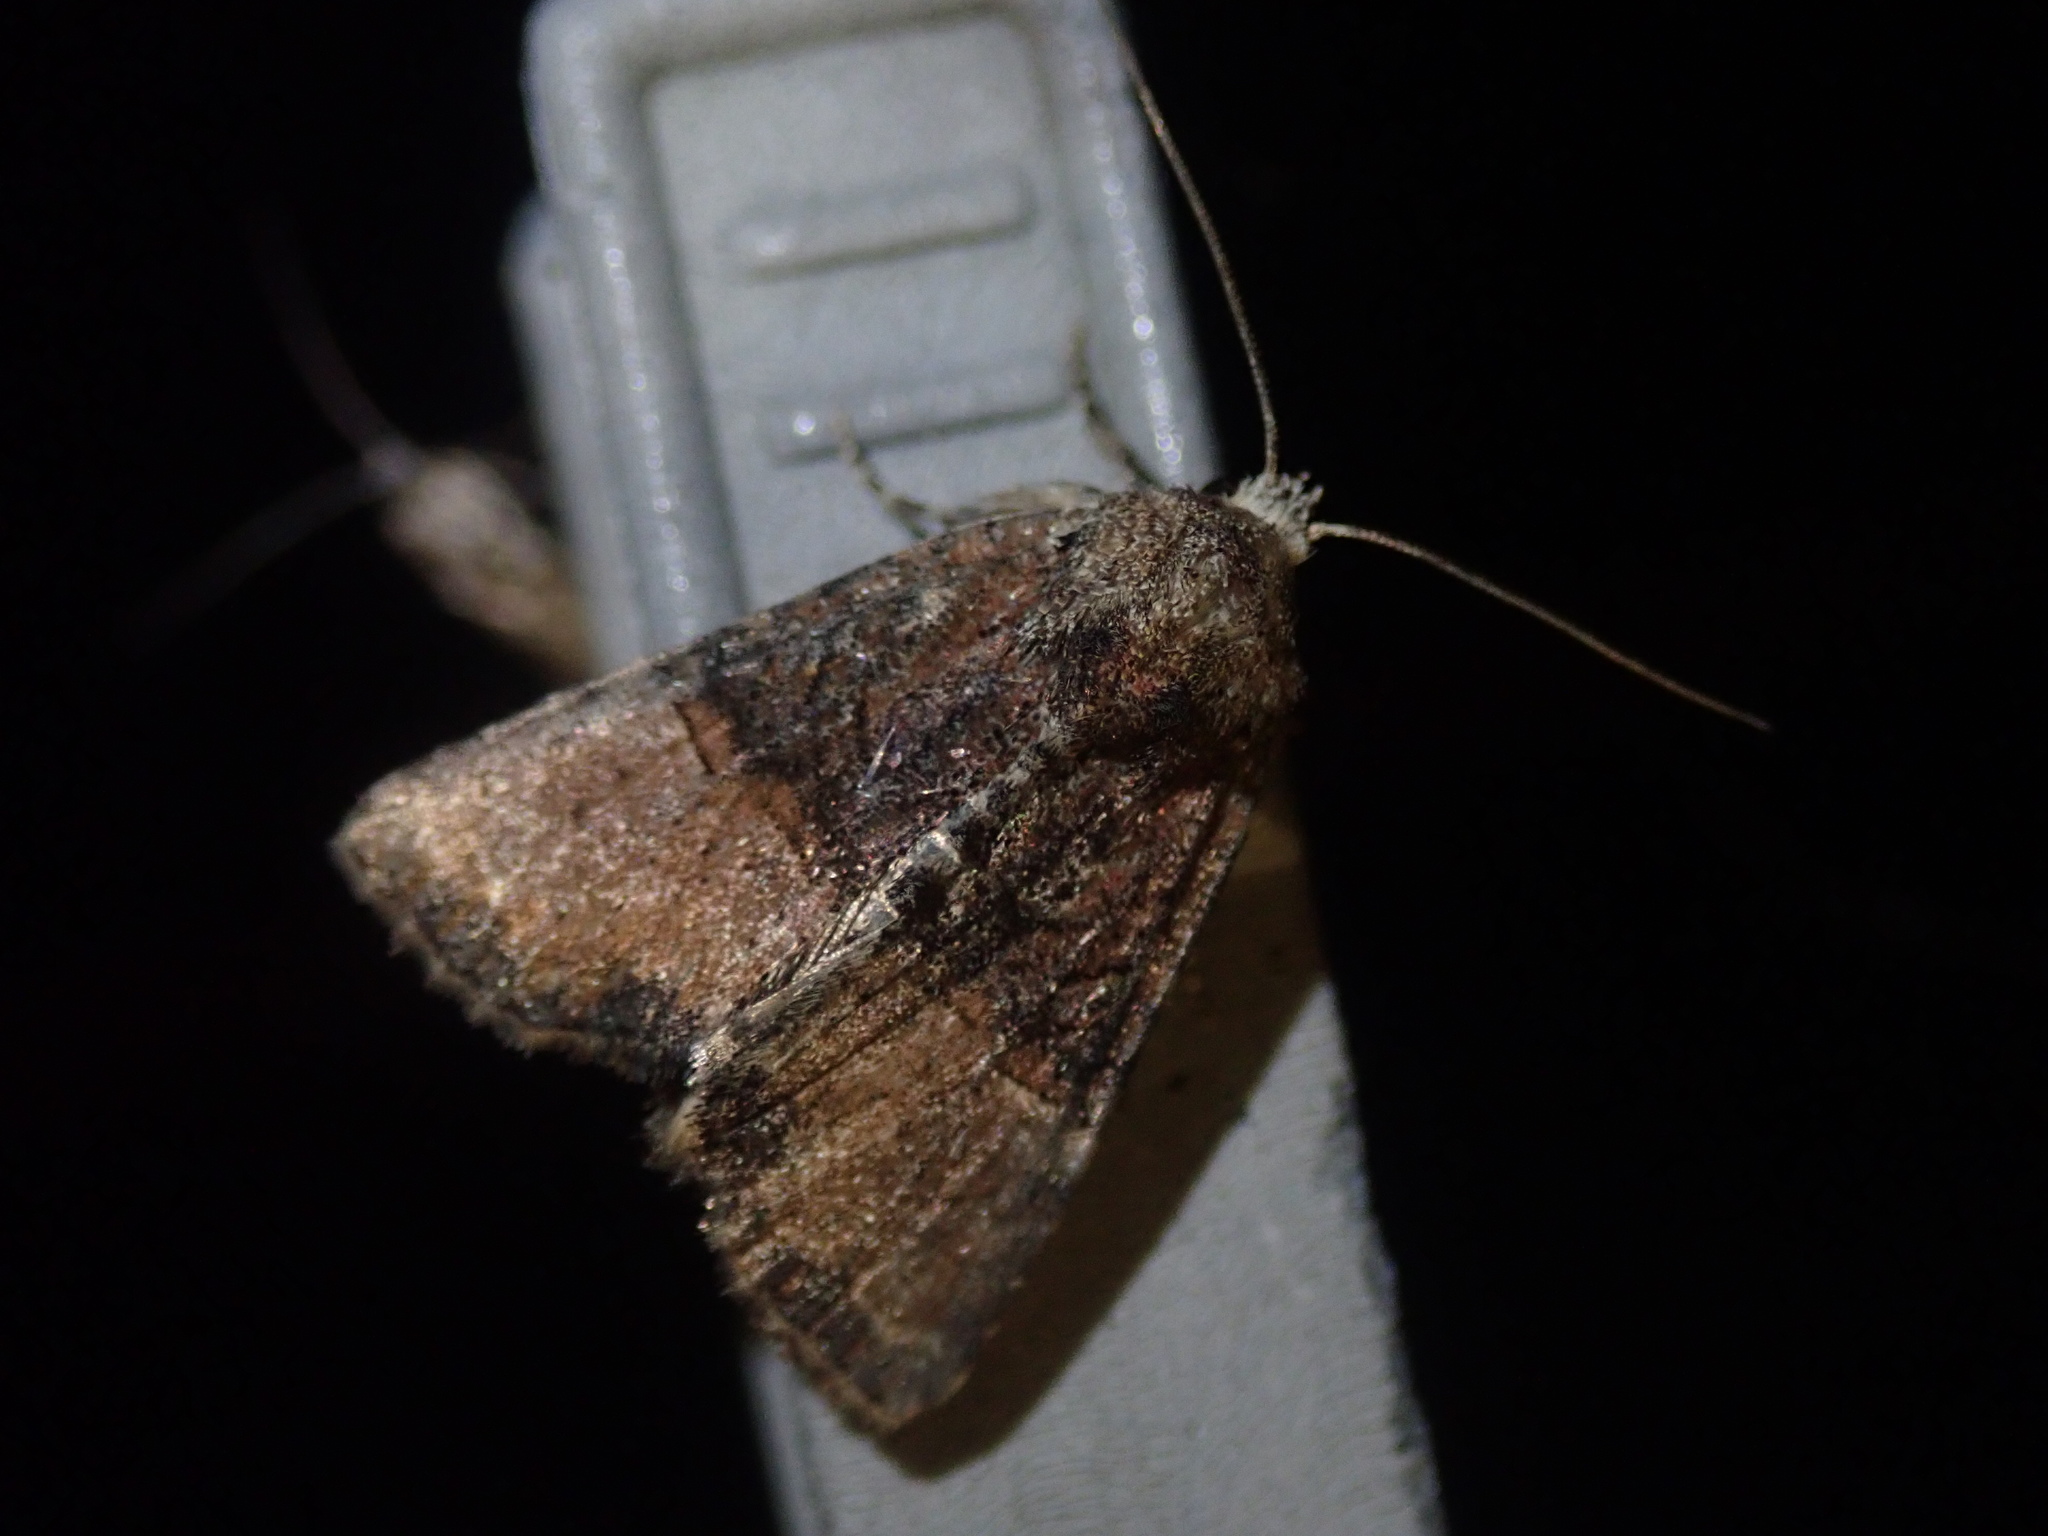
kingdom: Animalia
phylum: Arthropoda
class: Insecta
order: Lepidoptera
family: Noctuidae
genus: Mesoligia
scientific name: Mesoligia furuncula
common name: Cloaked minor
